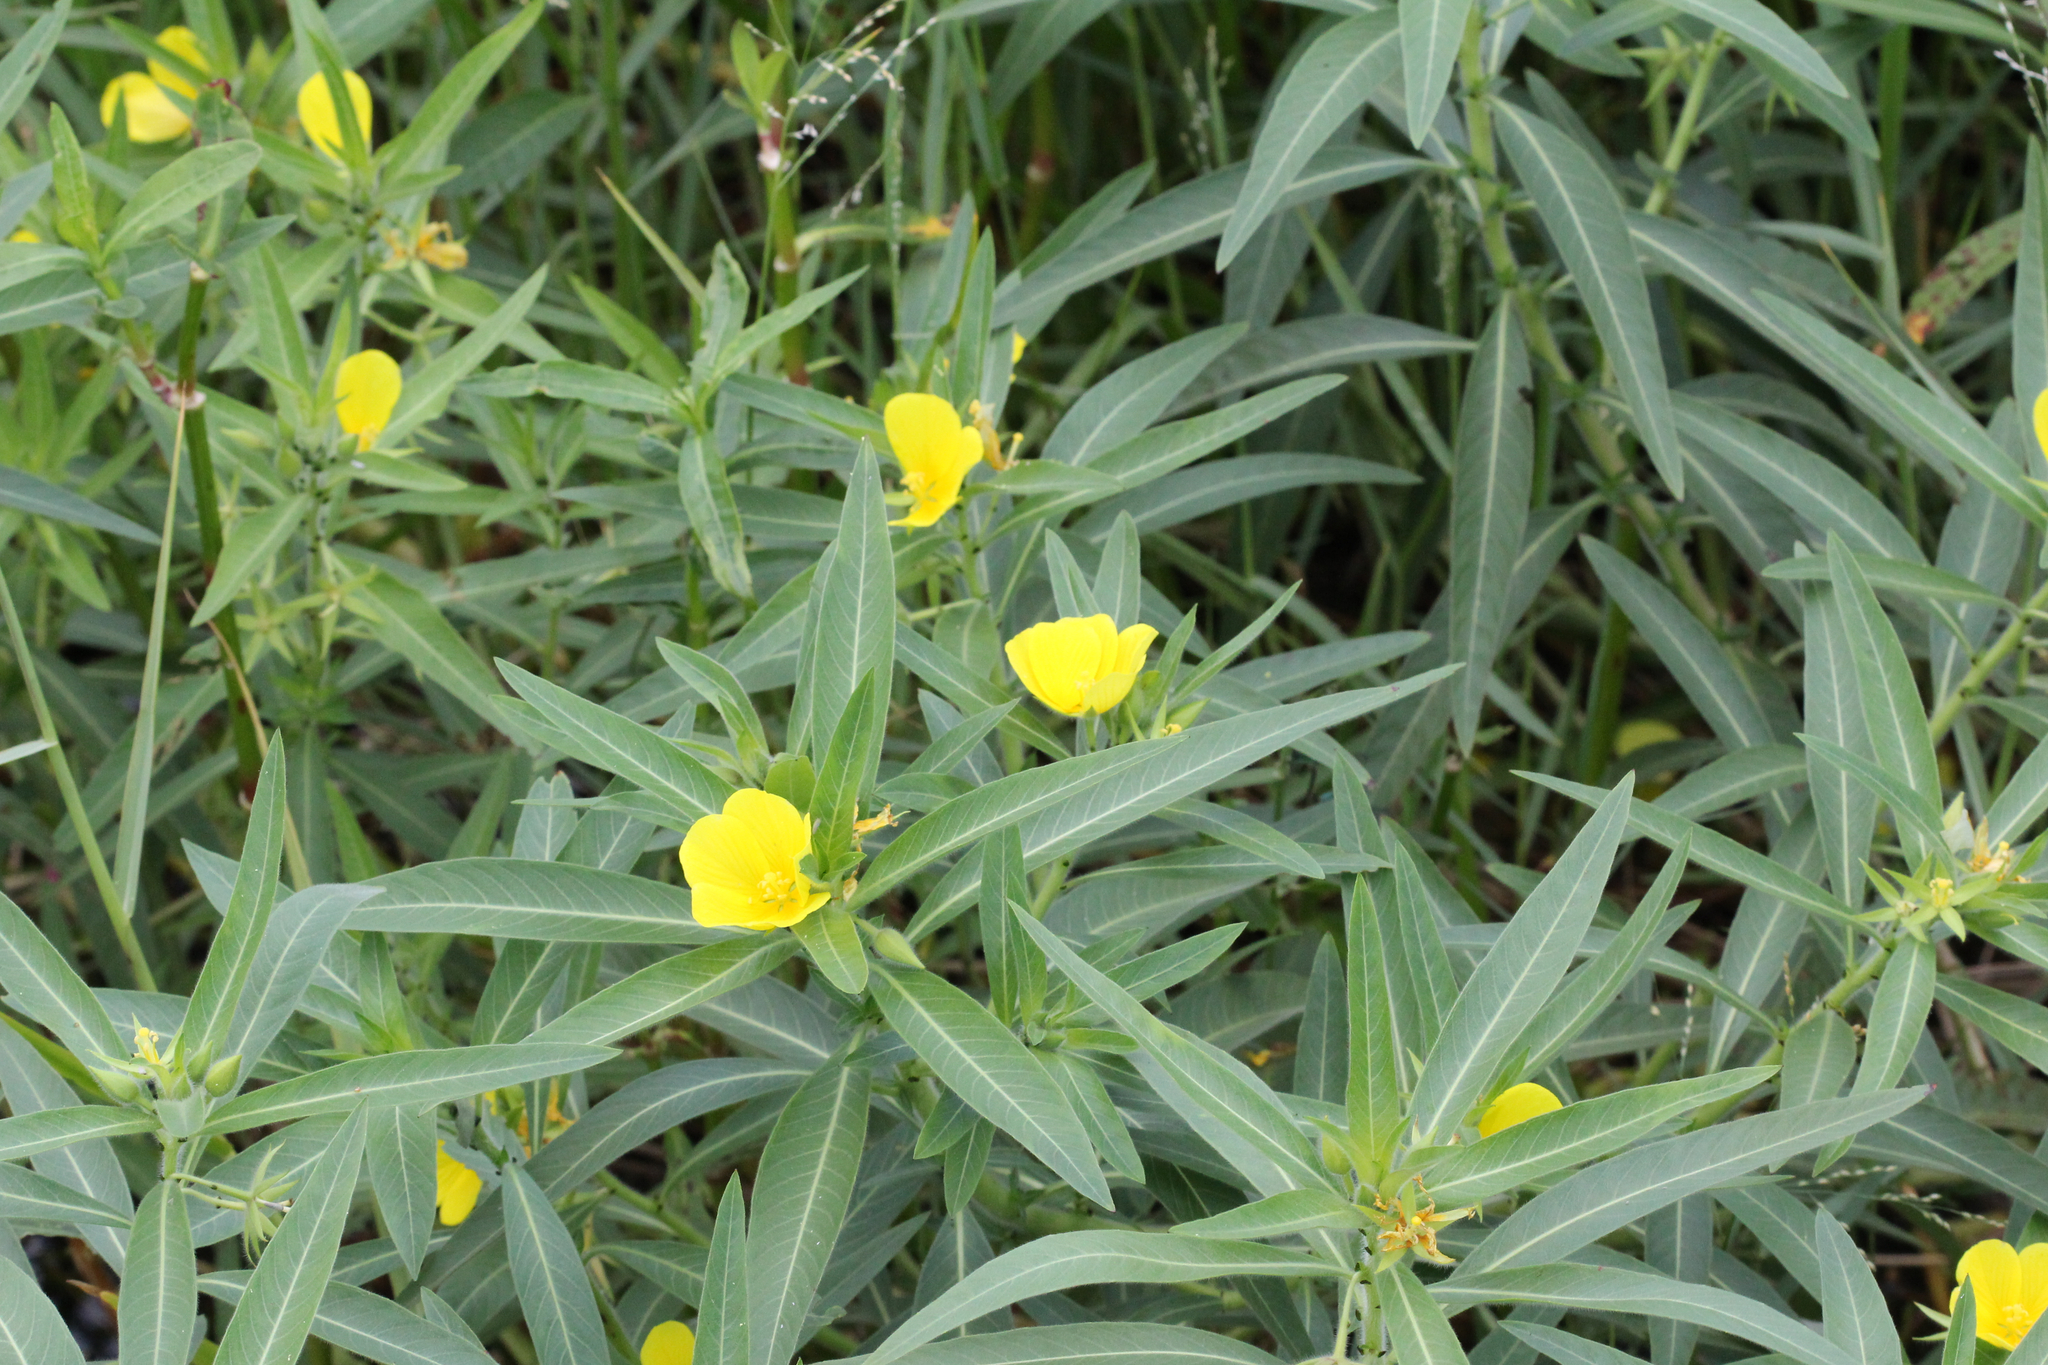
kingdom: Plantae
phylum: Tracheophyta
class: Magnoliopsida
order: Myrtales
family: Onagraceae
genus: Ludwigia
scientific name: Ludwigia hexapetala
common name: Water-primrose
